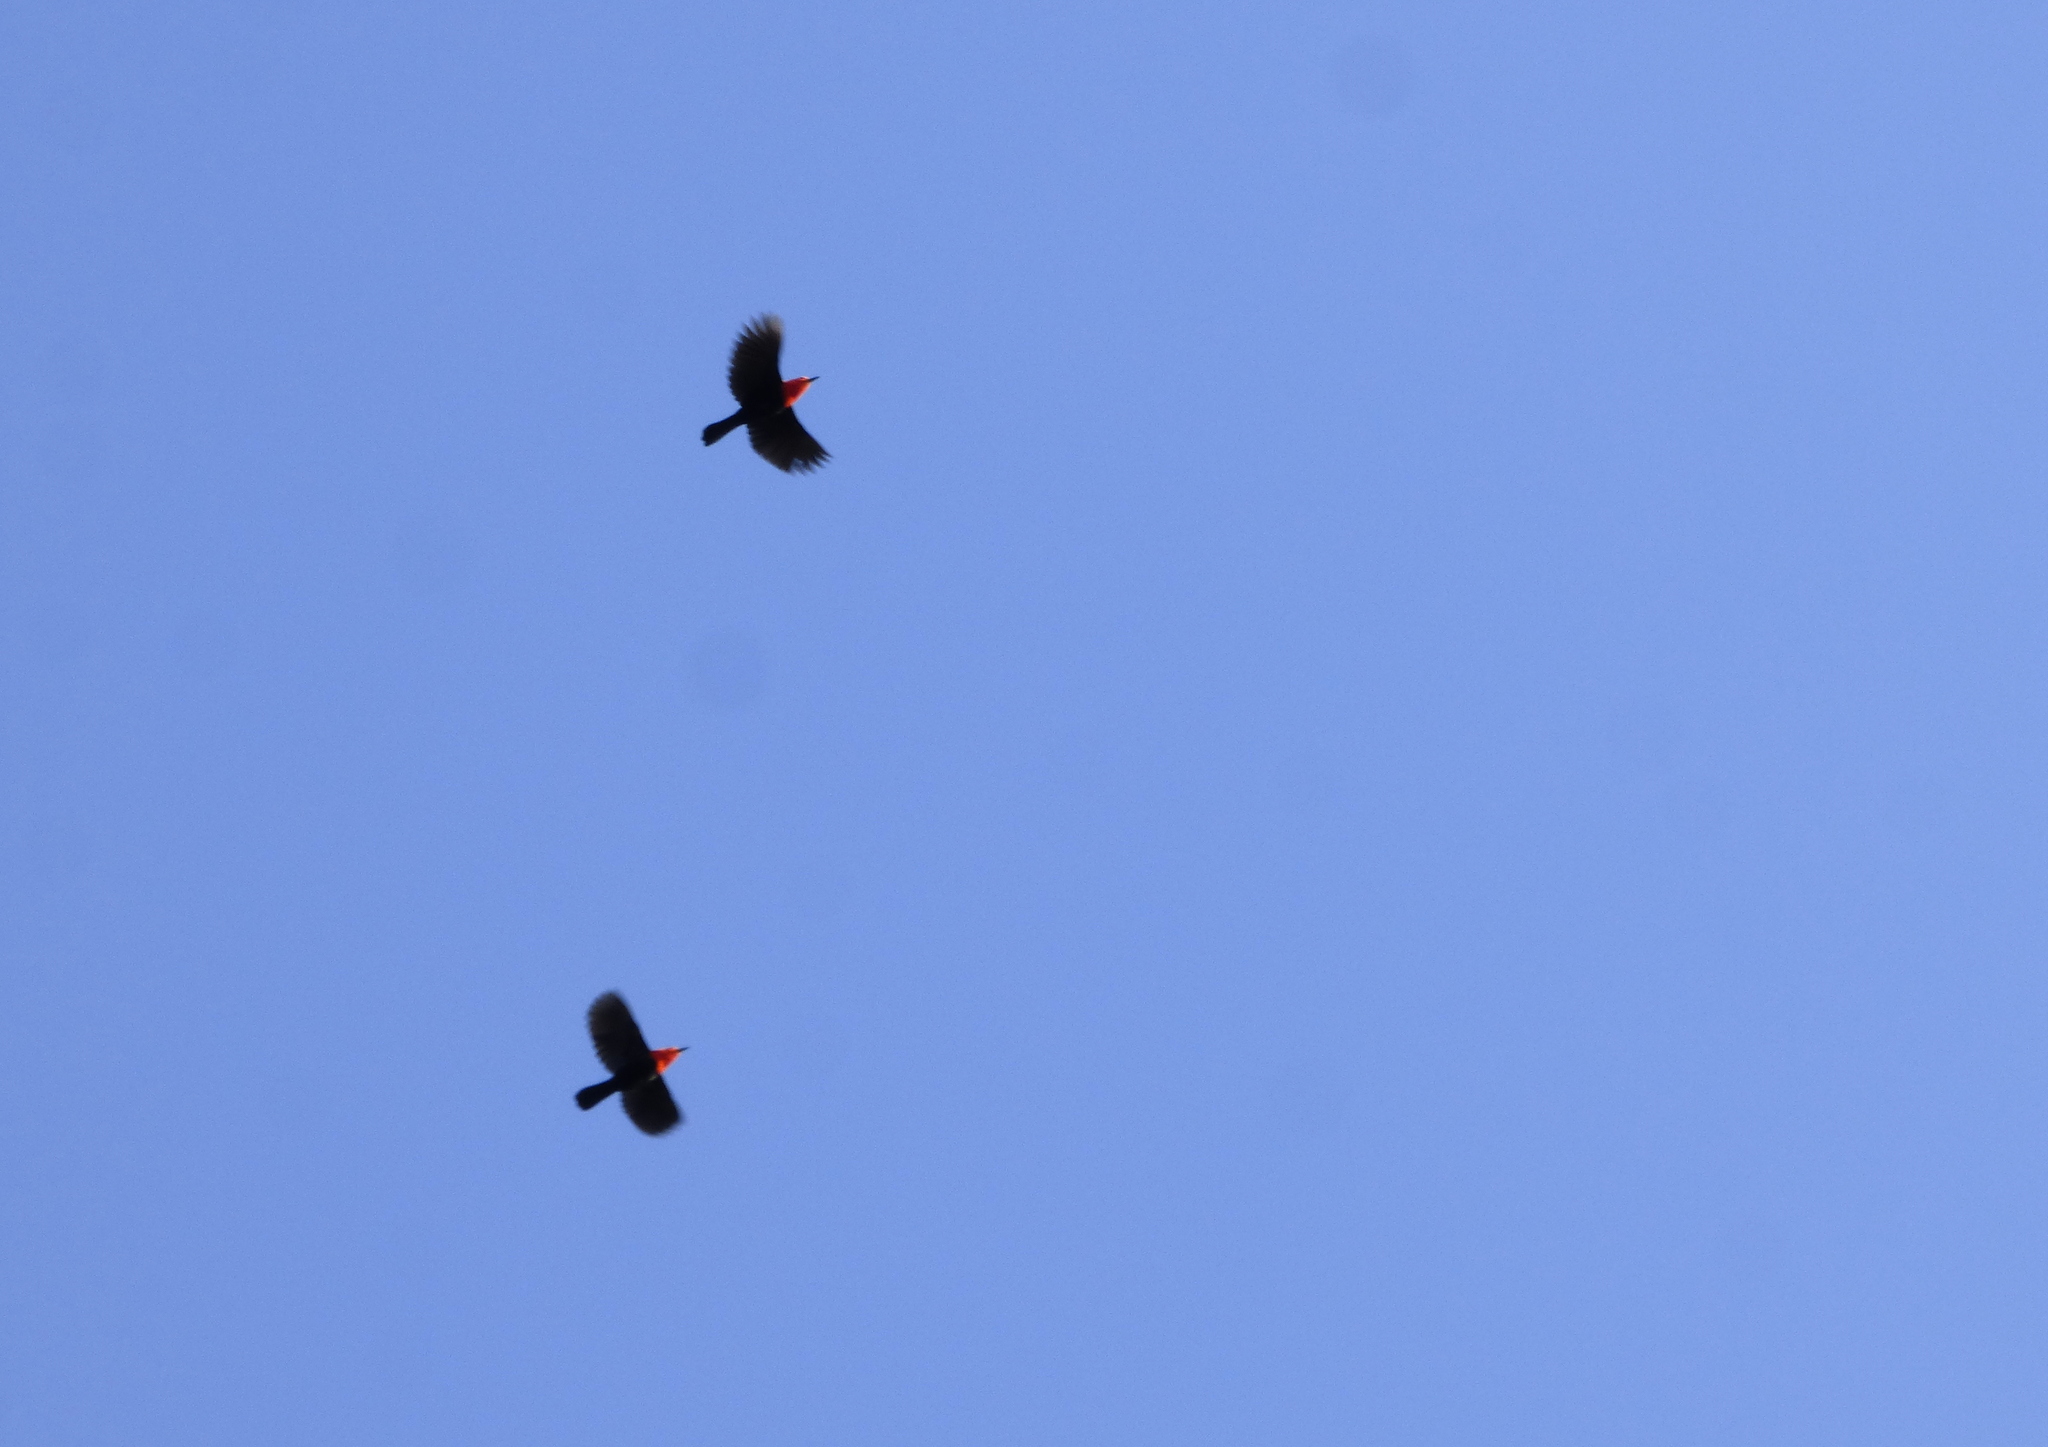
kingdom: Animalia
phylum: Chordata
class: Aves
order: Passeriformes
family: Icteridae
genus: Amblyramphus
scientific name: Amblyramphus holosericeus
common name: Scarlet-headed blackbird
